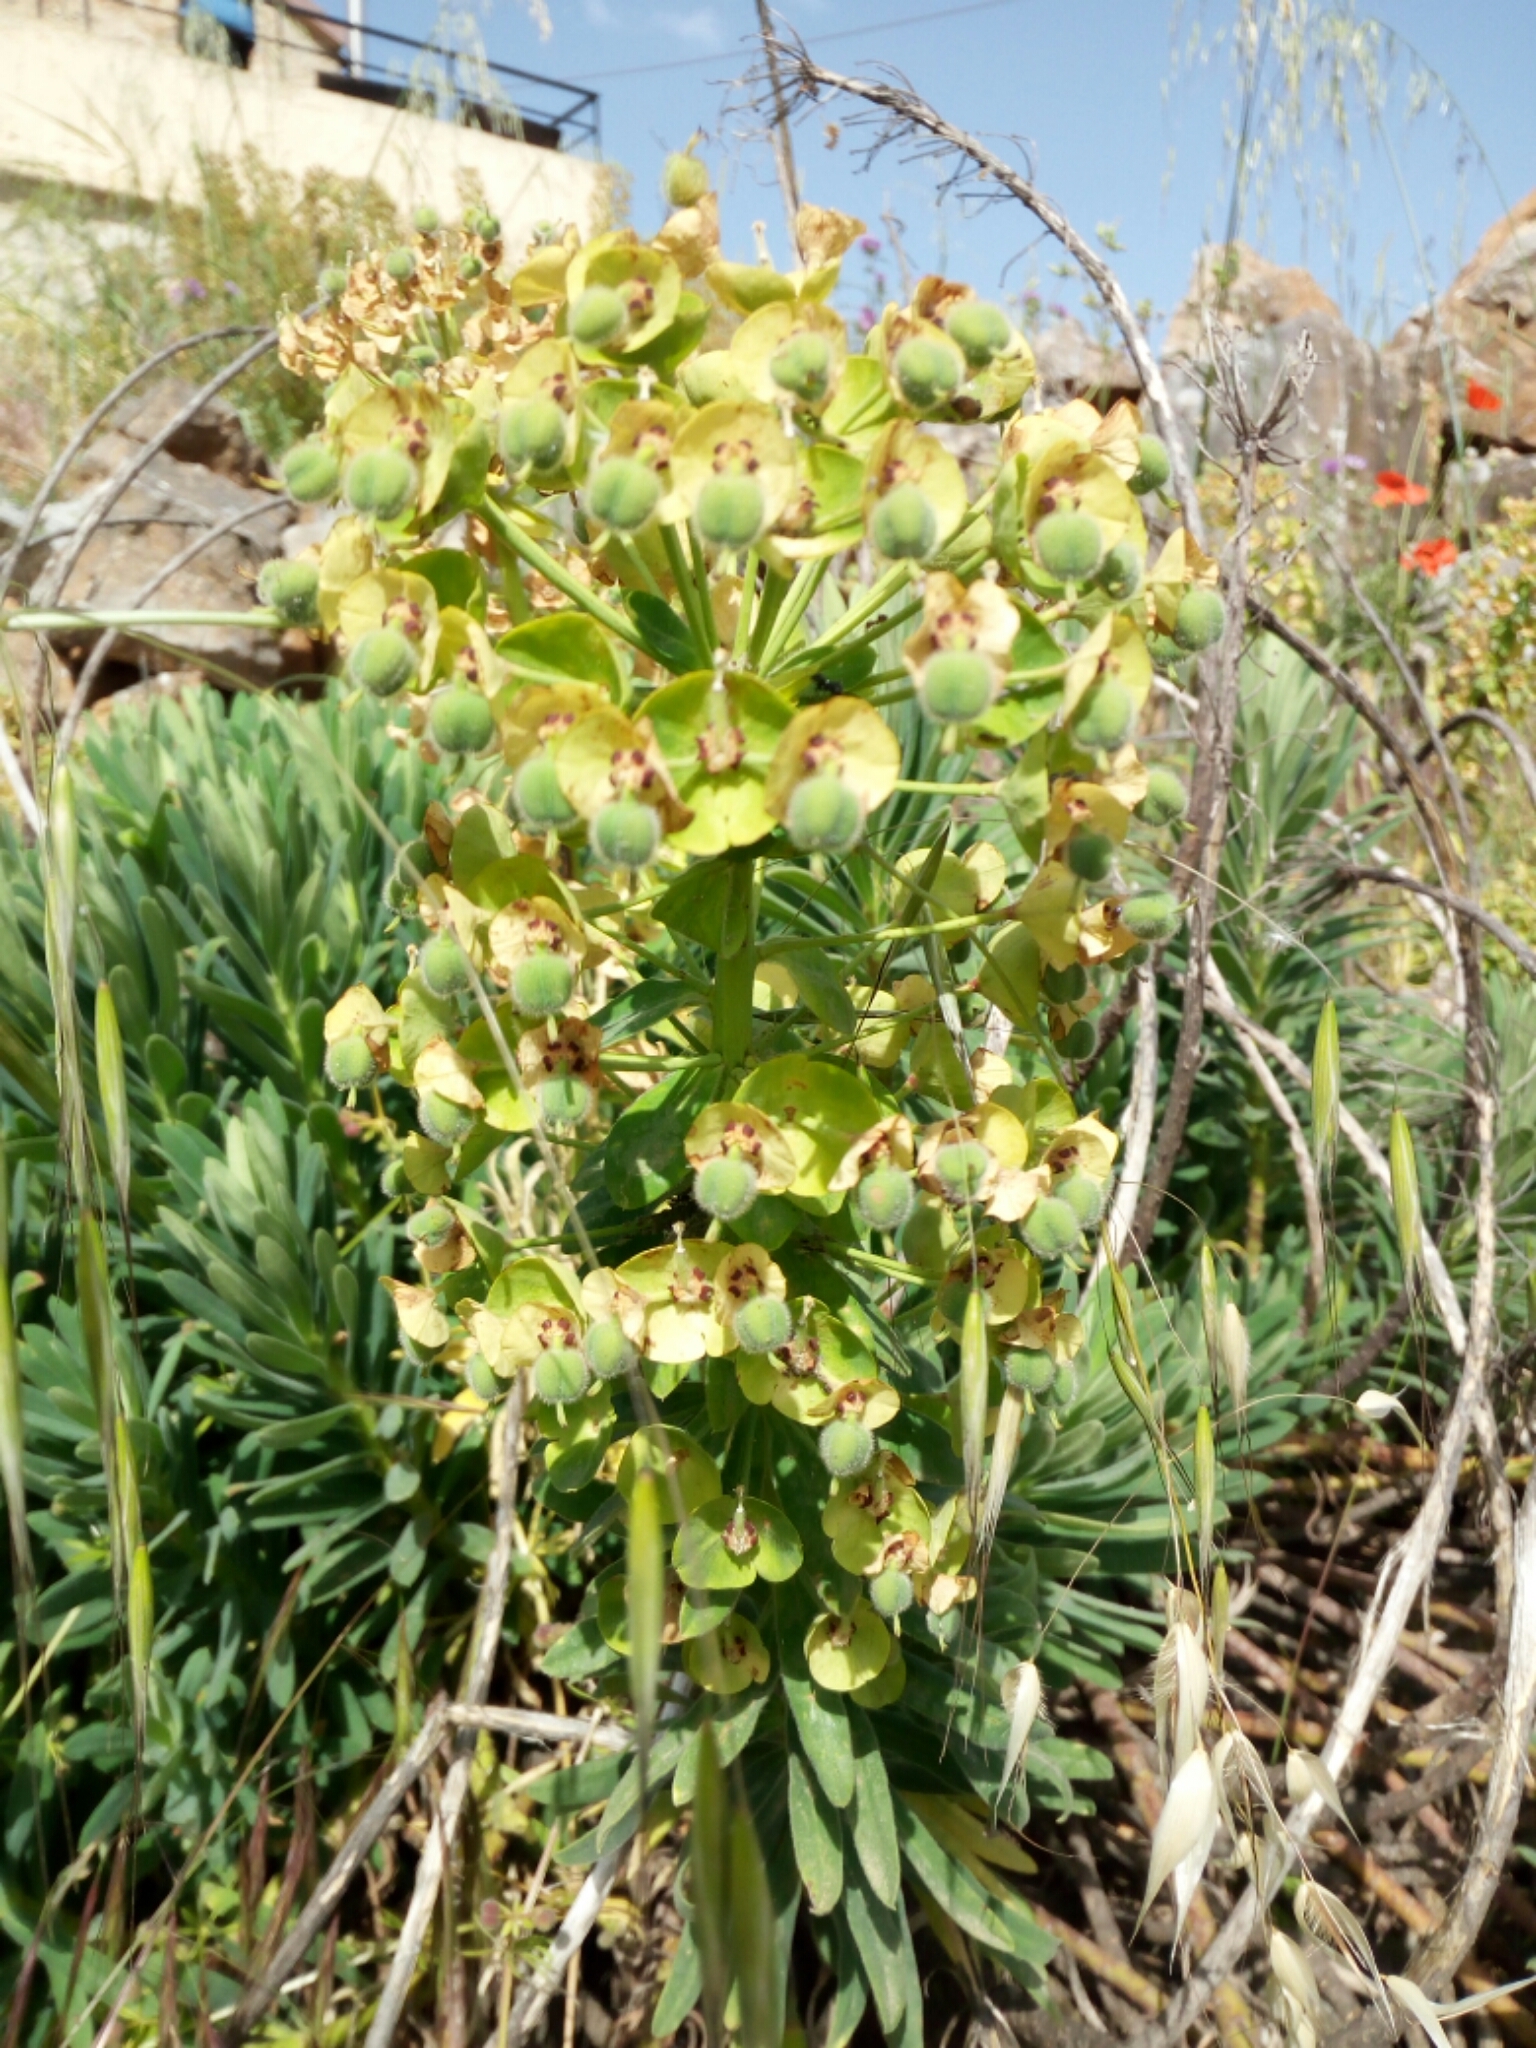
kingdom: Plantae
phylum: Tracheophyta
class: Magnoliopsida
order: Malpighiales
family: Euphorbiaceae
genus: Euphorbia
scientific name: Euphorbia characias
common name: Mediterranean spurge
